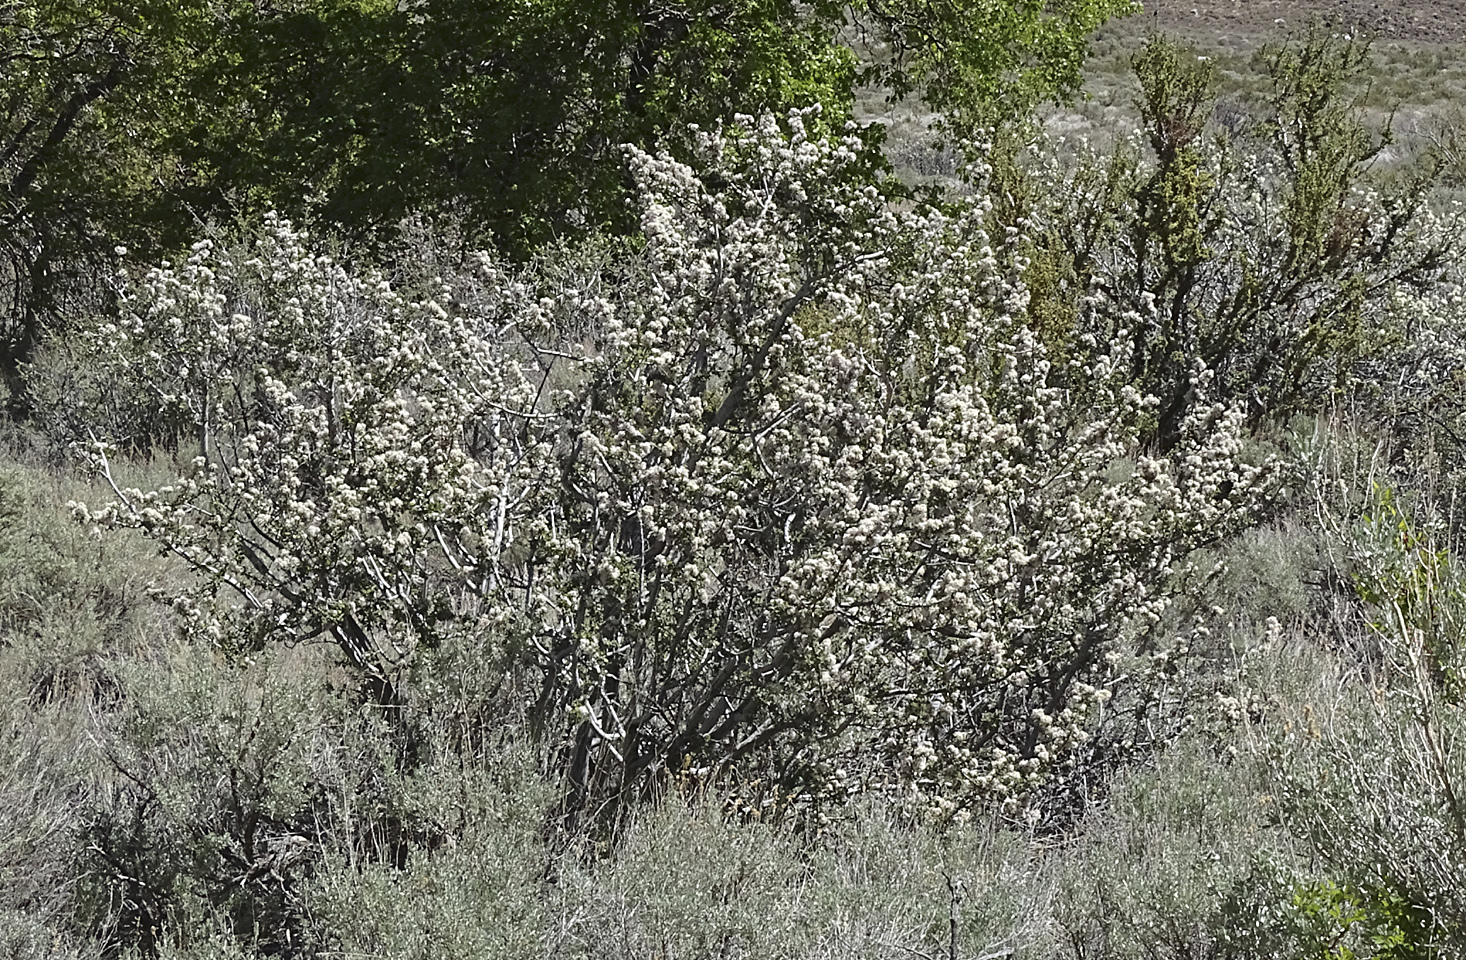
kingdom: Plantae
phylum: Tracheophyta
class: Magnoliopsida
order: Rosales
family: Rhamnaceae
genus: Ceanothus
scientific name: Ceanothus pauciflorus
